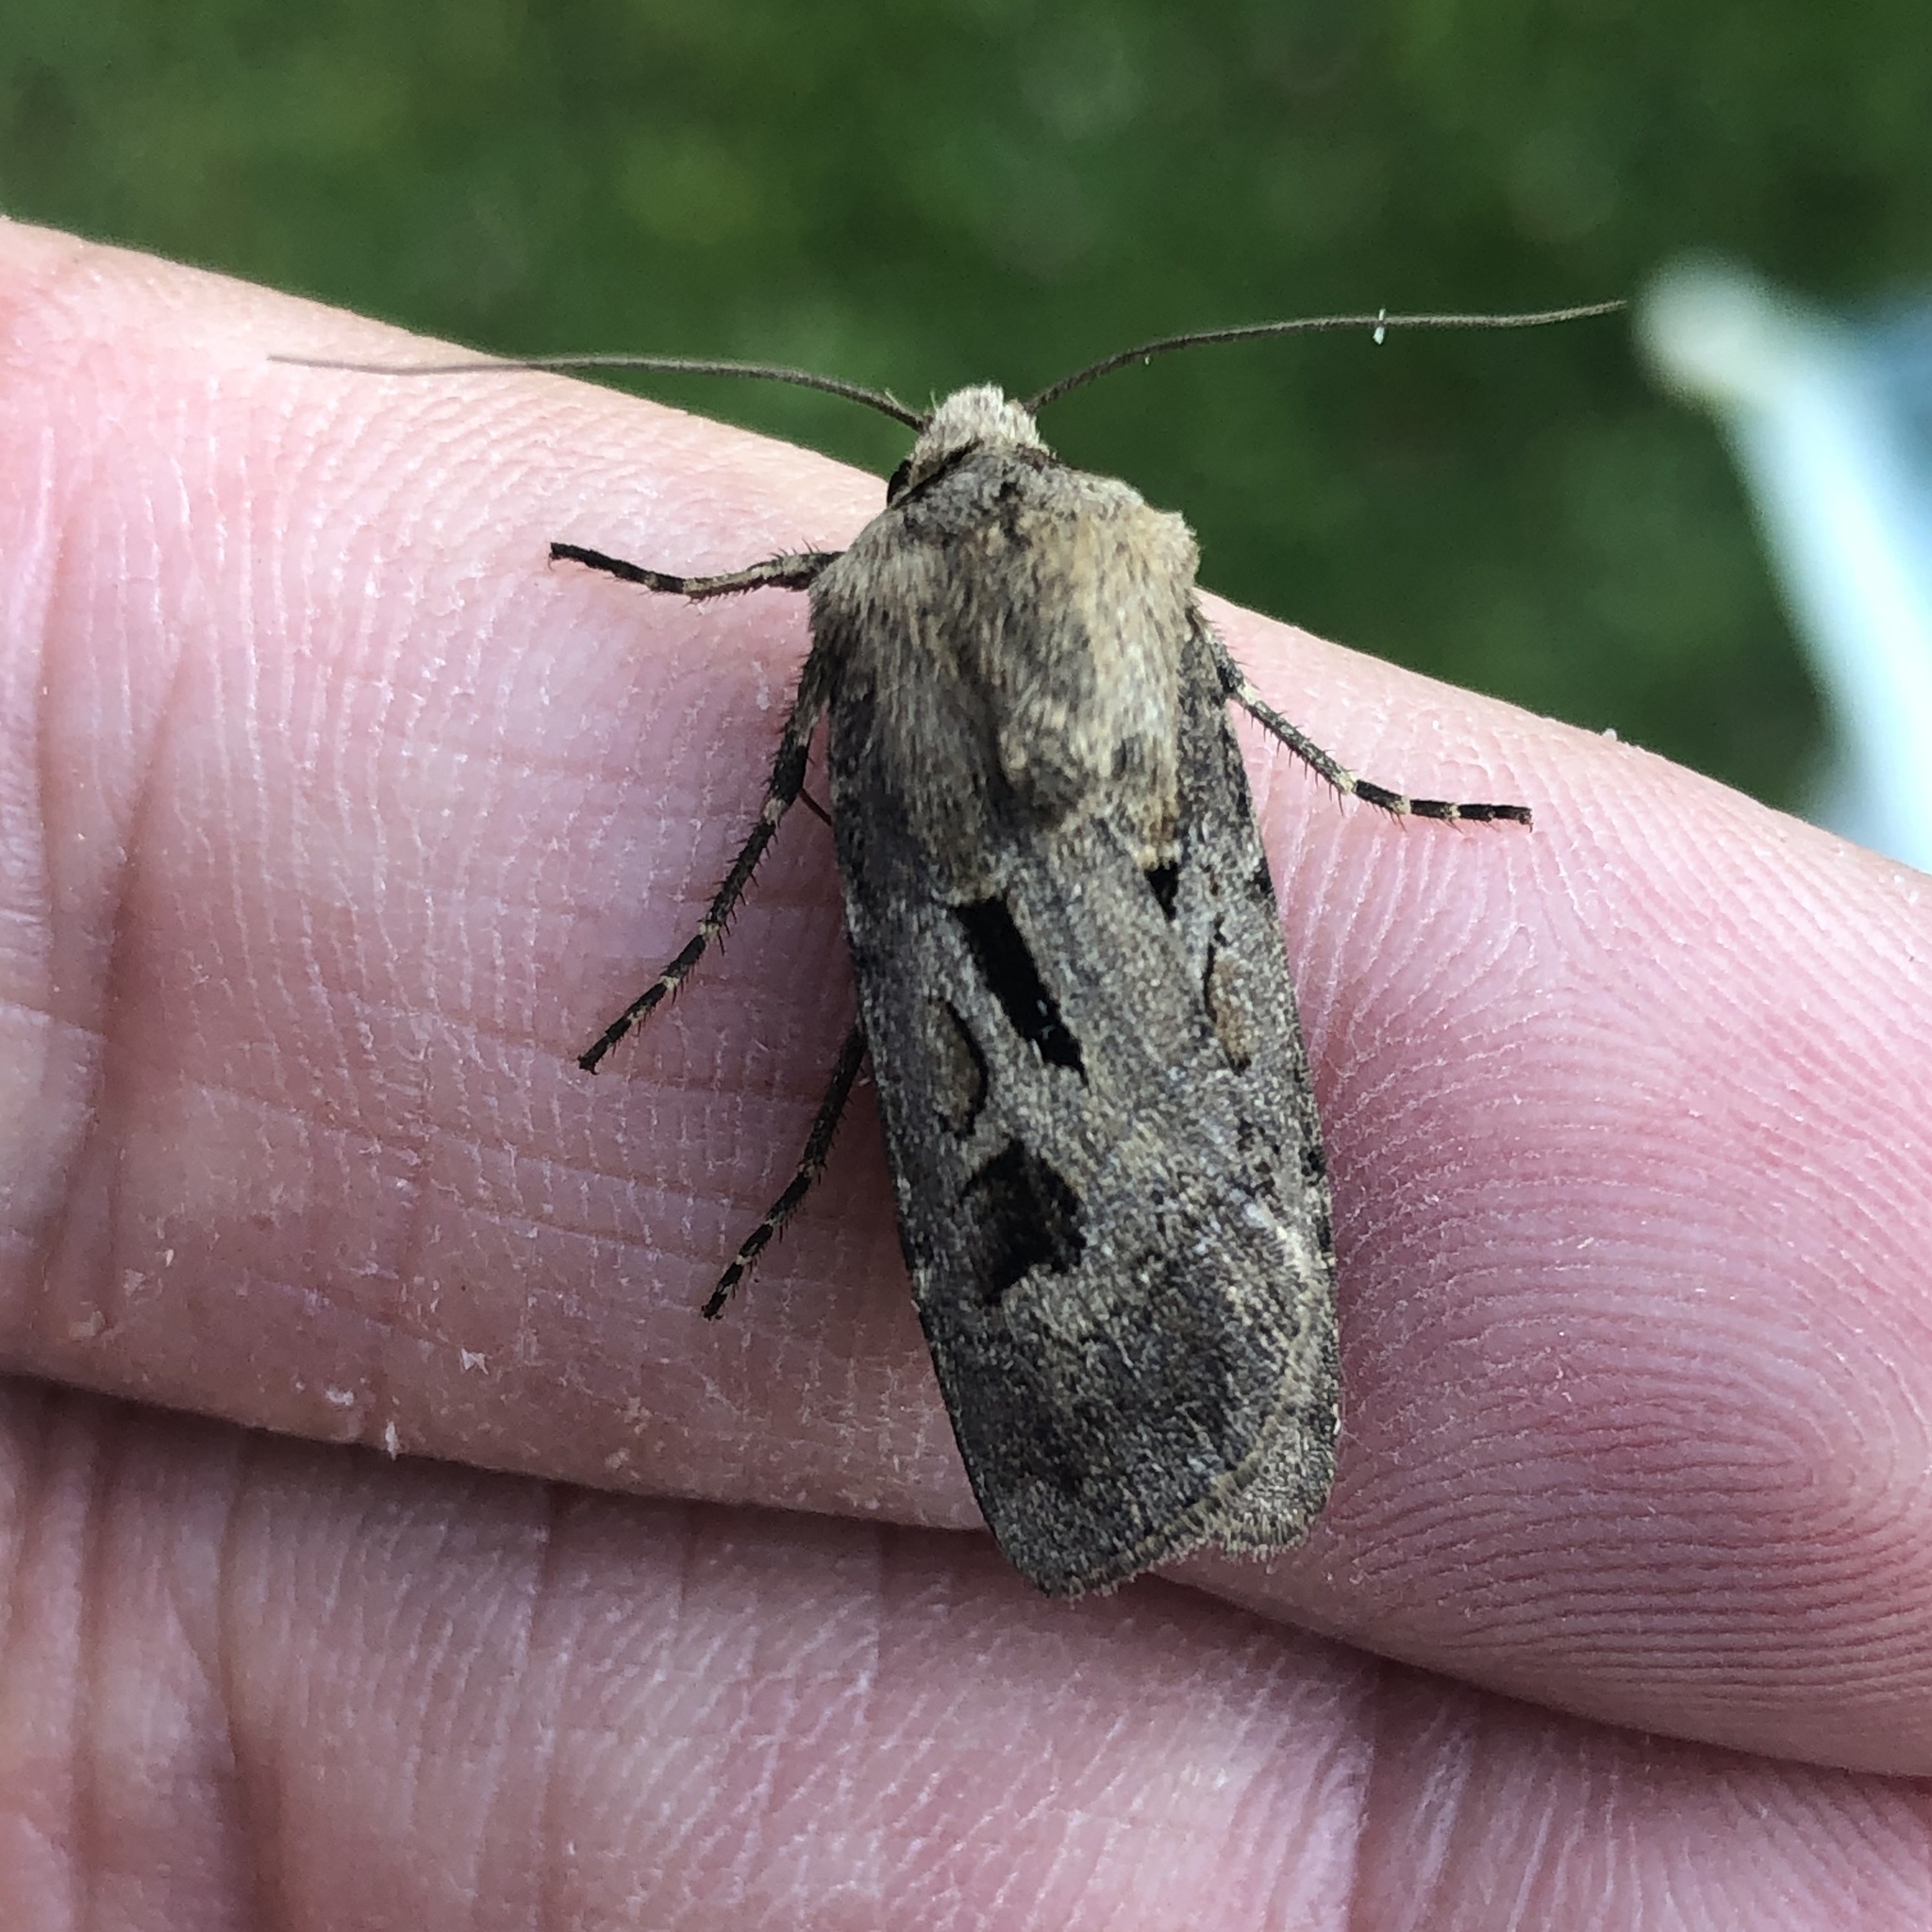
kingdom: Animalia
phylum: Arthropoda
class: Insecta
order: Lepidoptera
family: Noctuidae
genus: Agrotis
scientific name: Agrotis exclamationis
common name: Heart and dart
